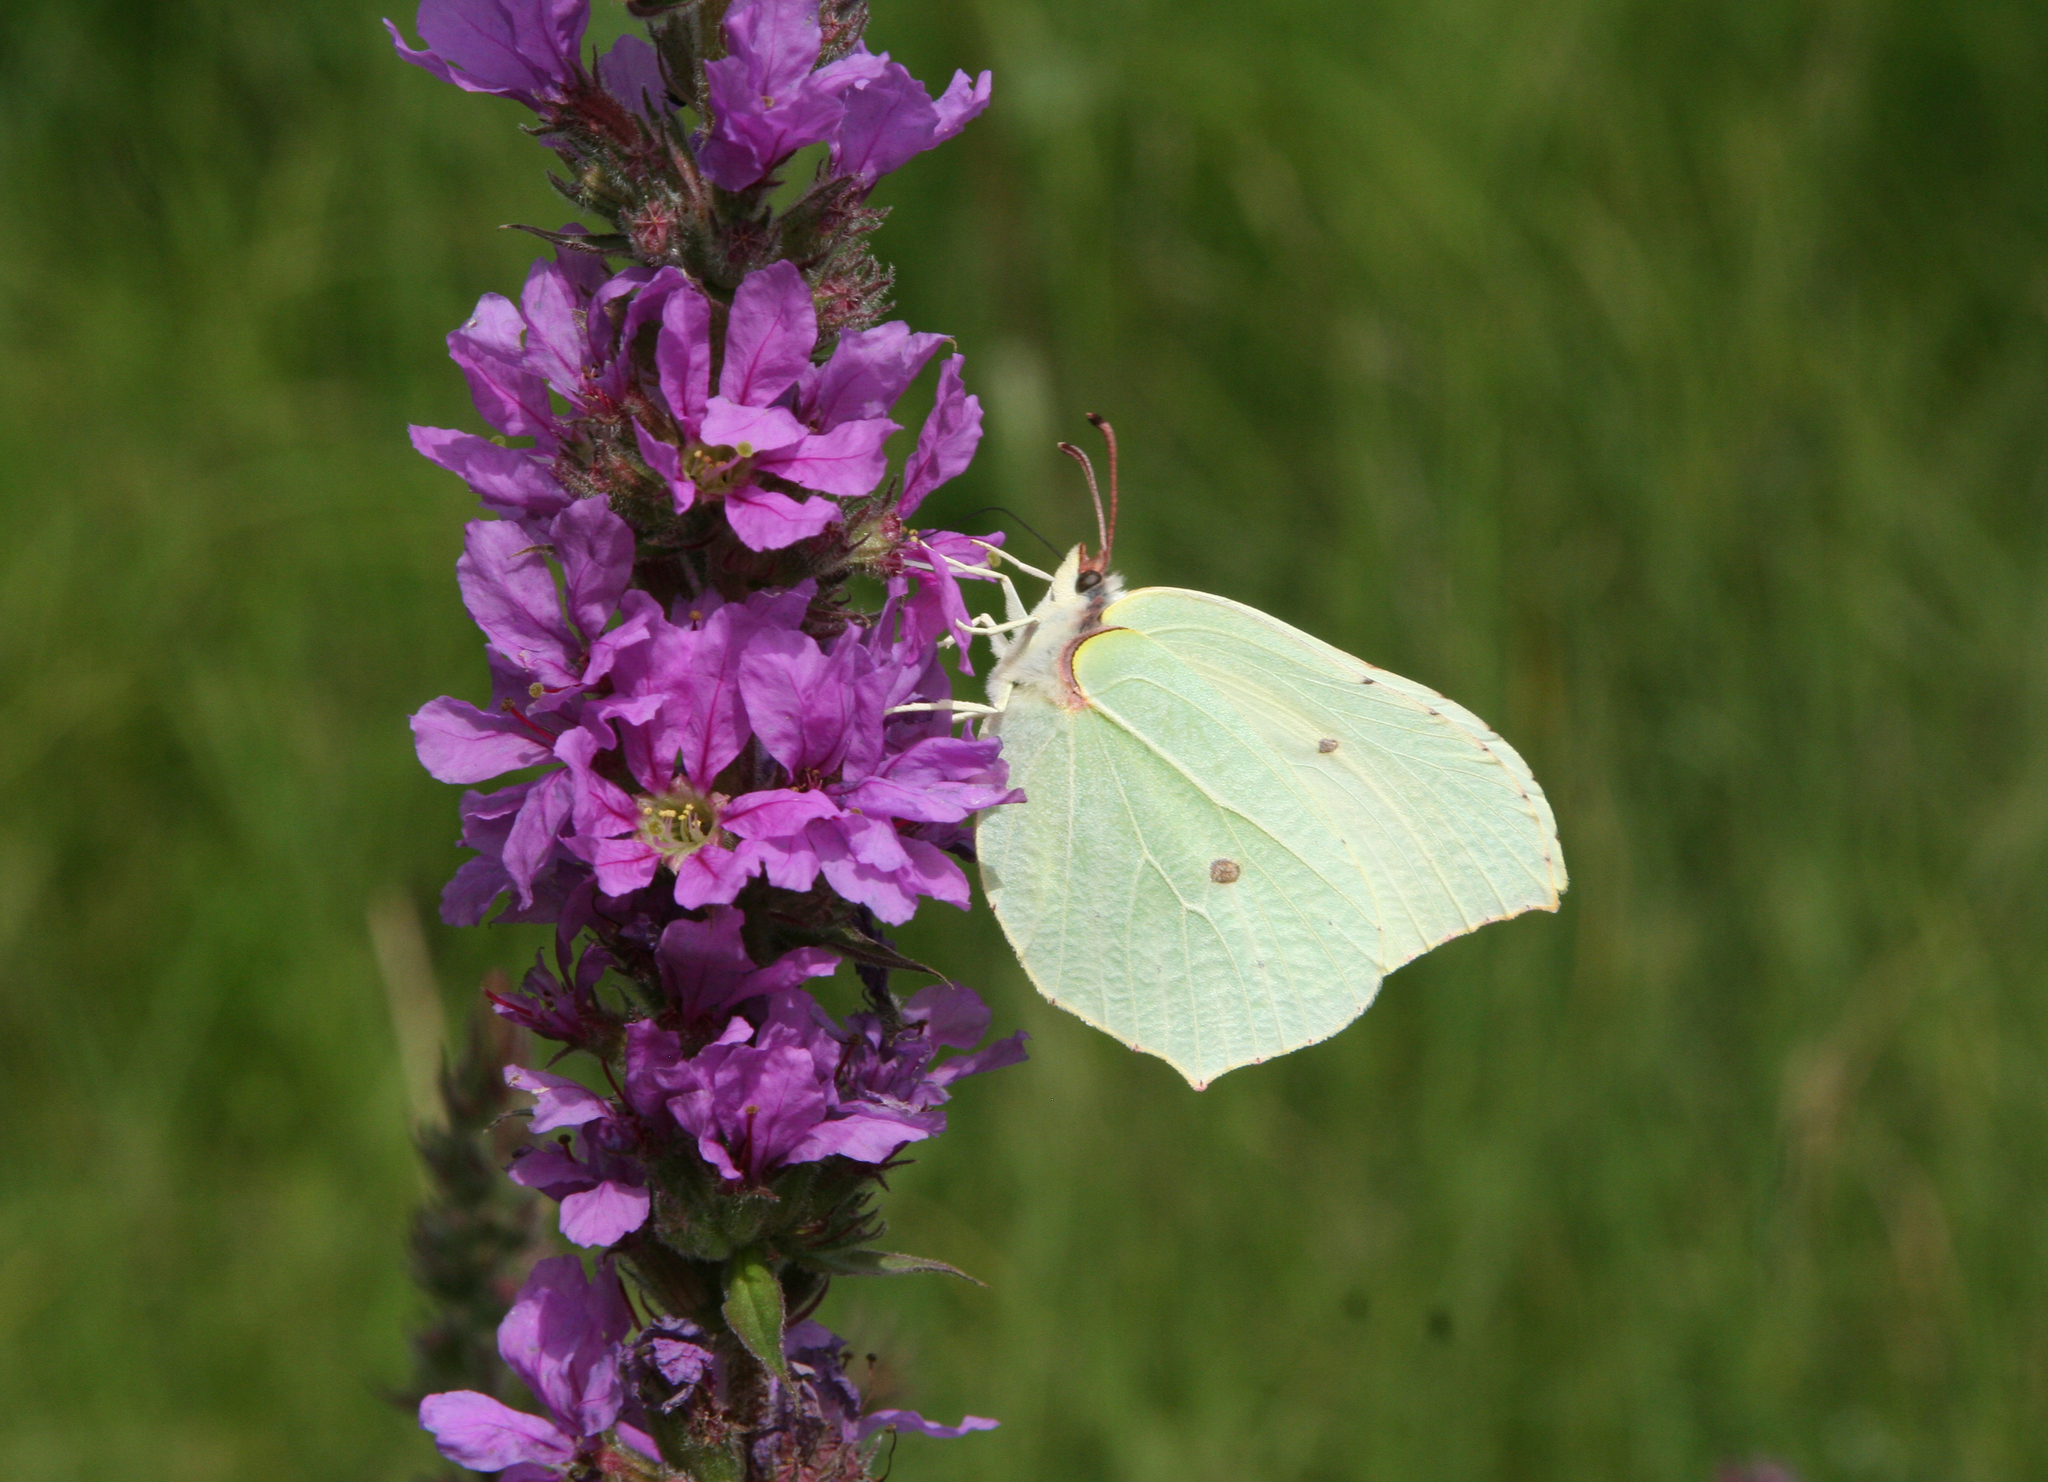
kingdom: Animalia
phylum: Arthropoda
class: Insecta
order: Lepidoptera
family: Pieridae
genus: Gonepteryx
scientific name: Gonepteryx rhamni
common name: Brimstone
